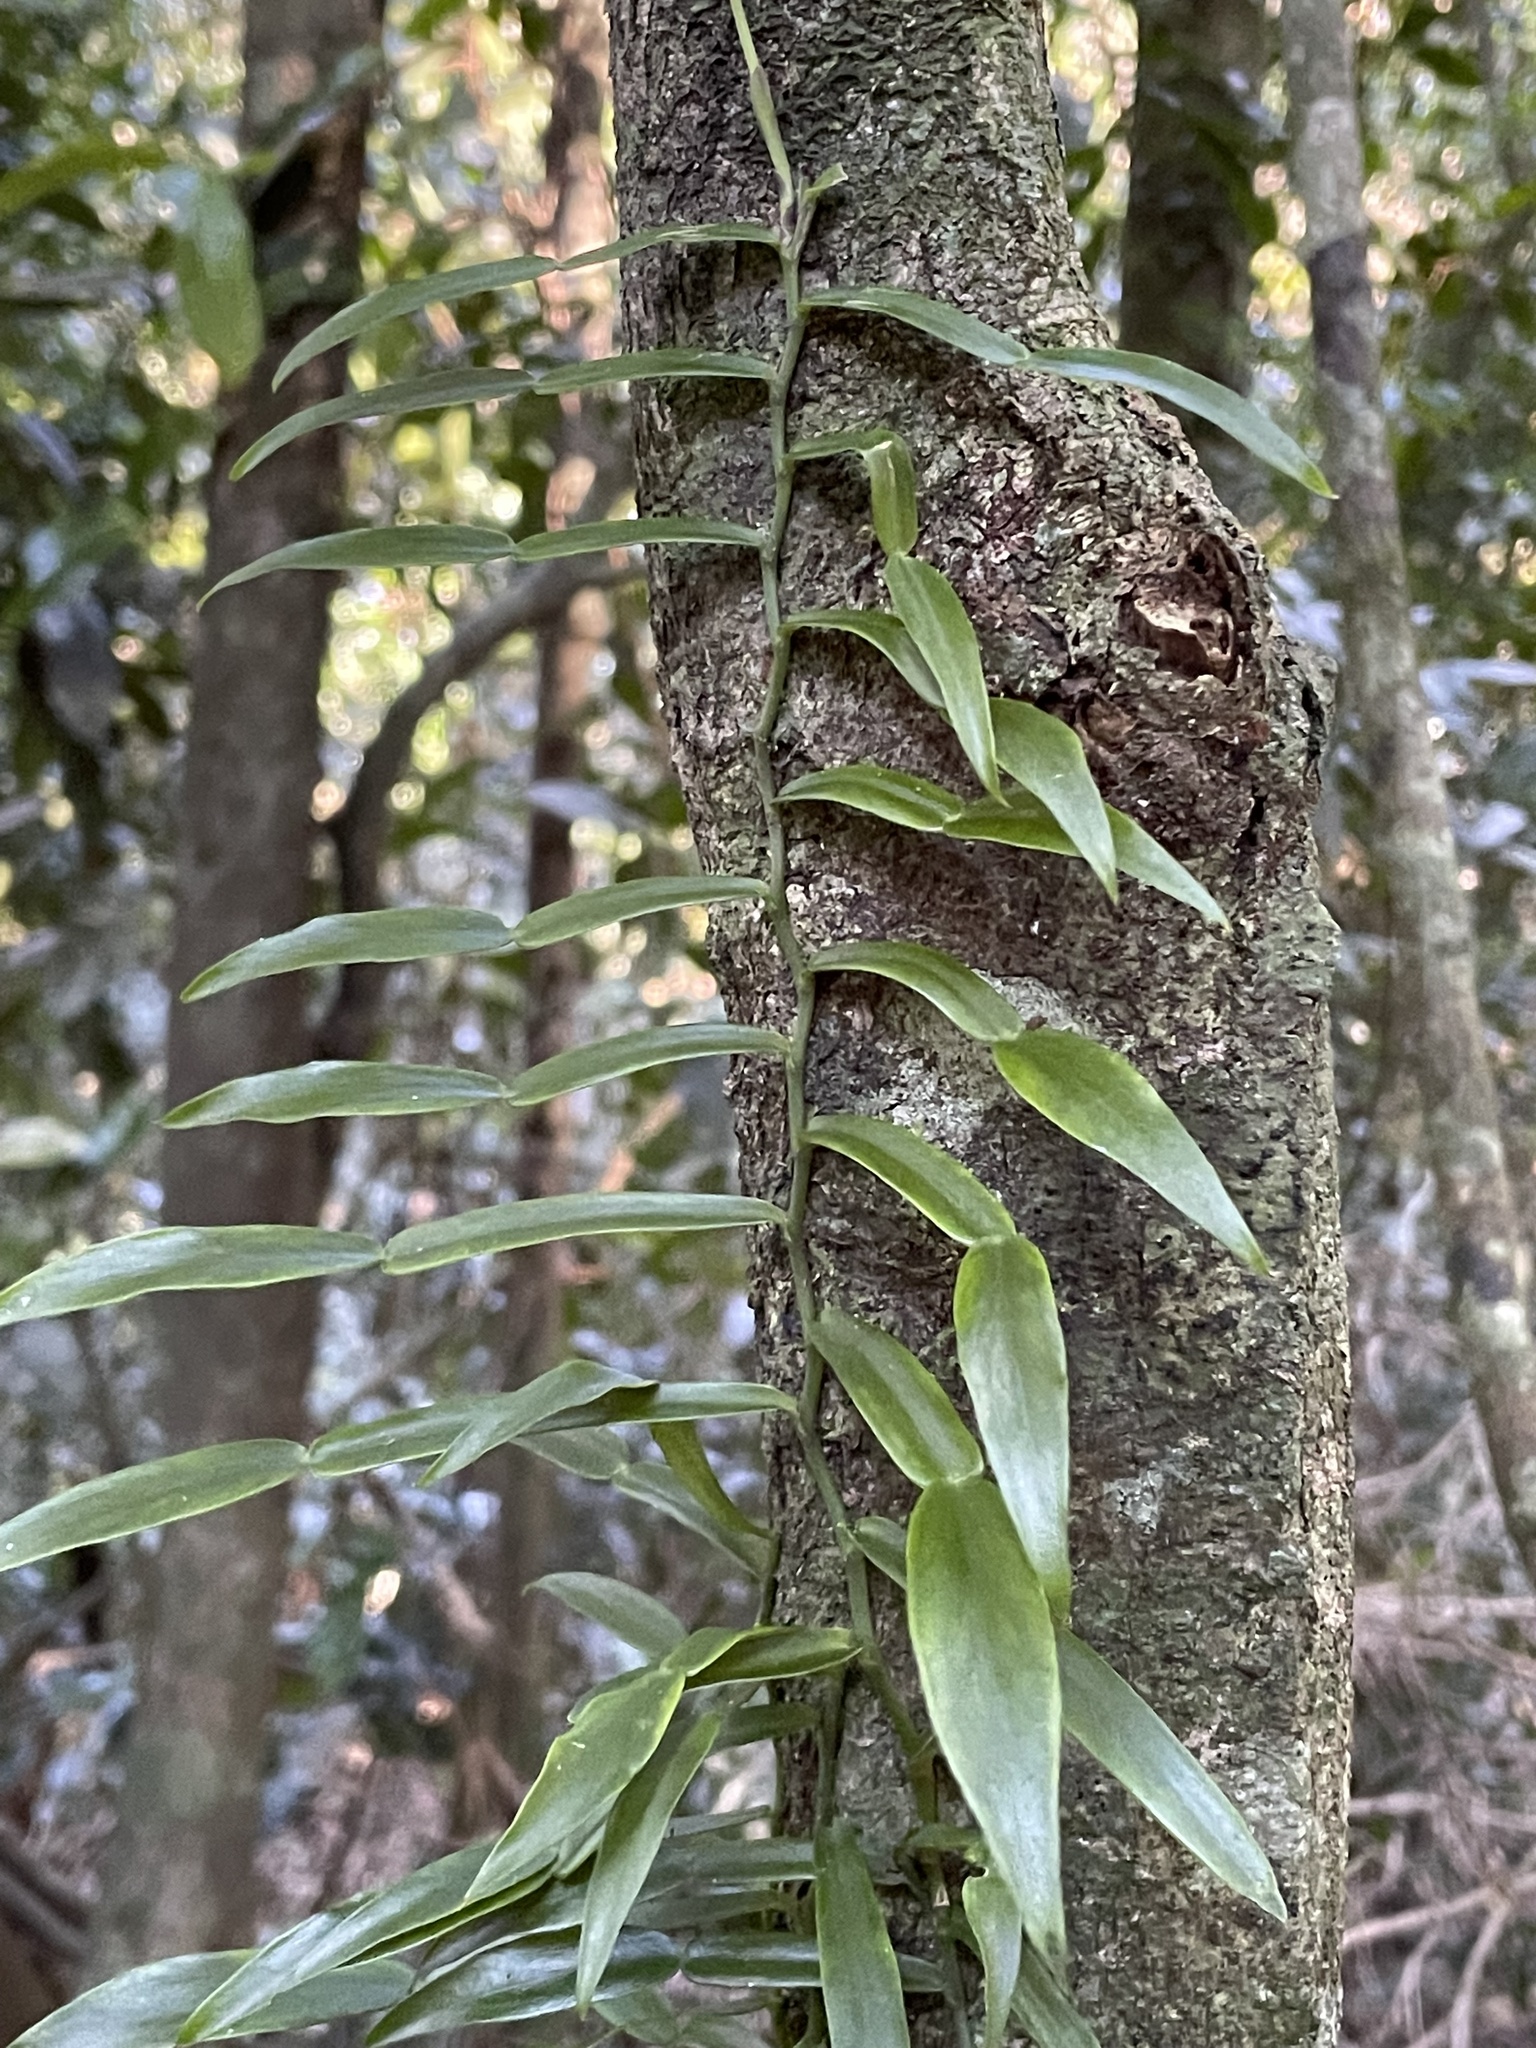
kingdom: Plantae
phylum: Tracheophyta
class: Liliopsida
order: Alismatales
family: Araceae
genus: Pothos
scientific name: Pothos longipes
